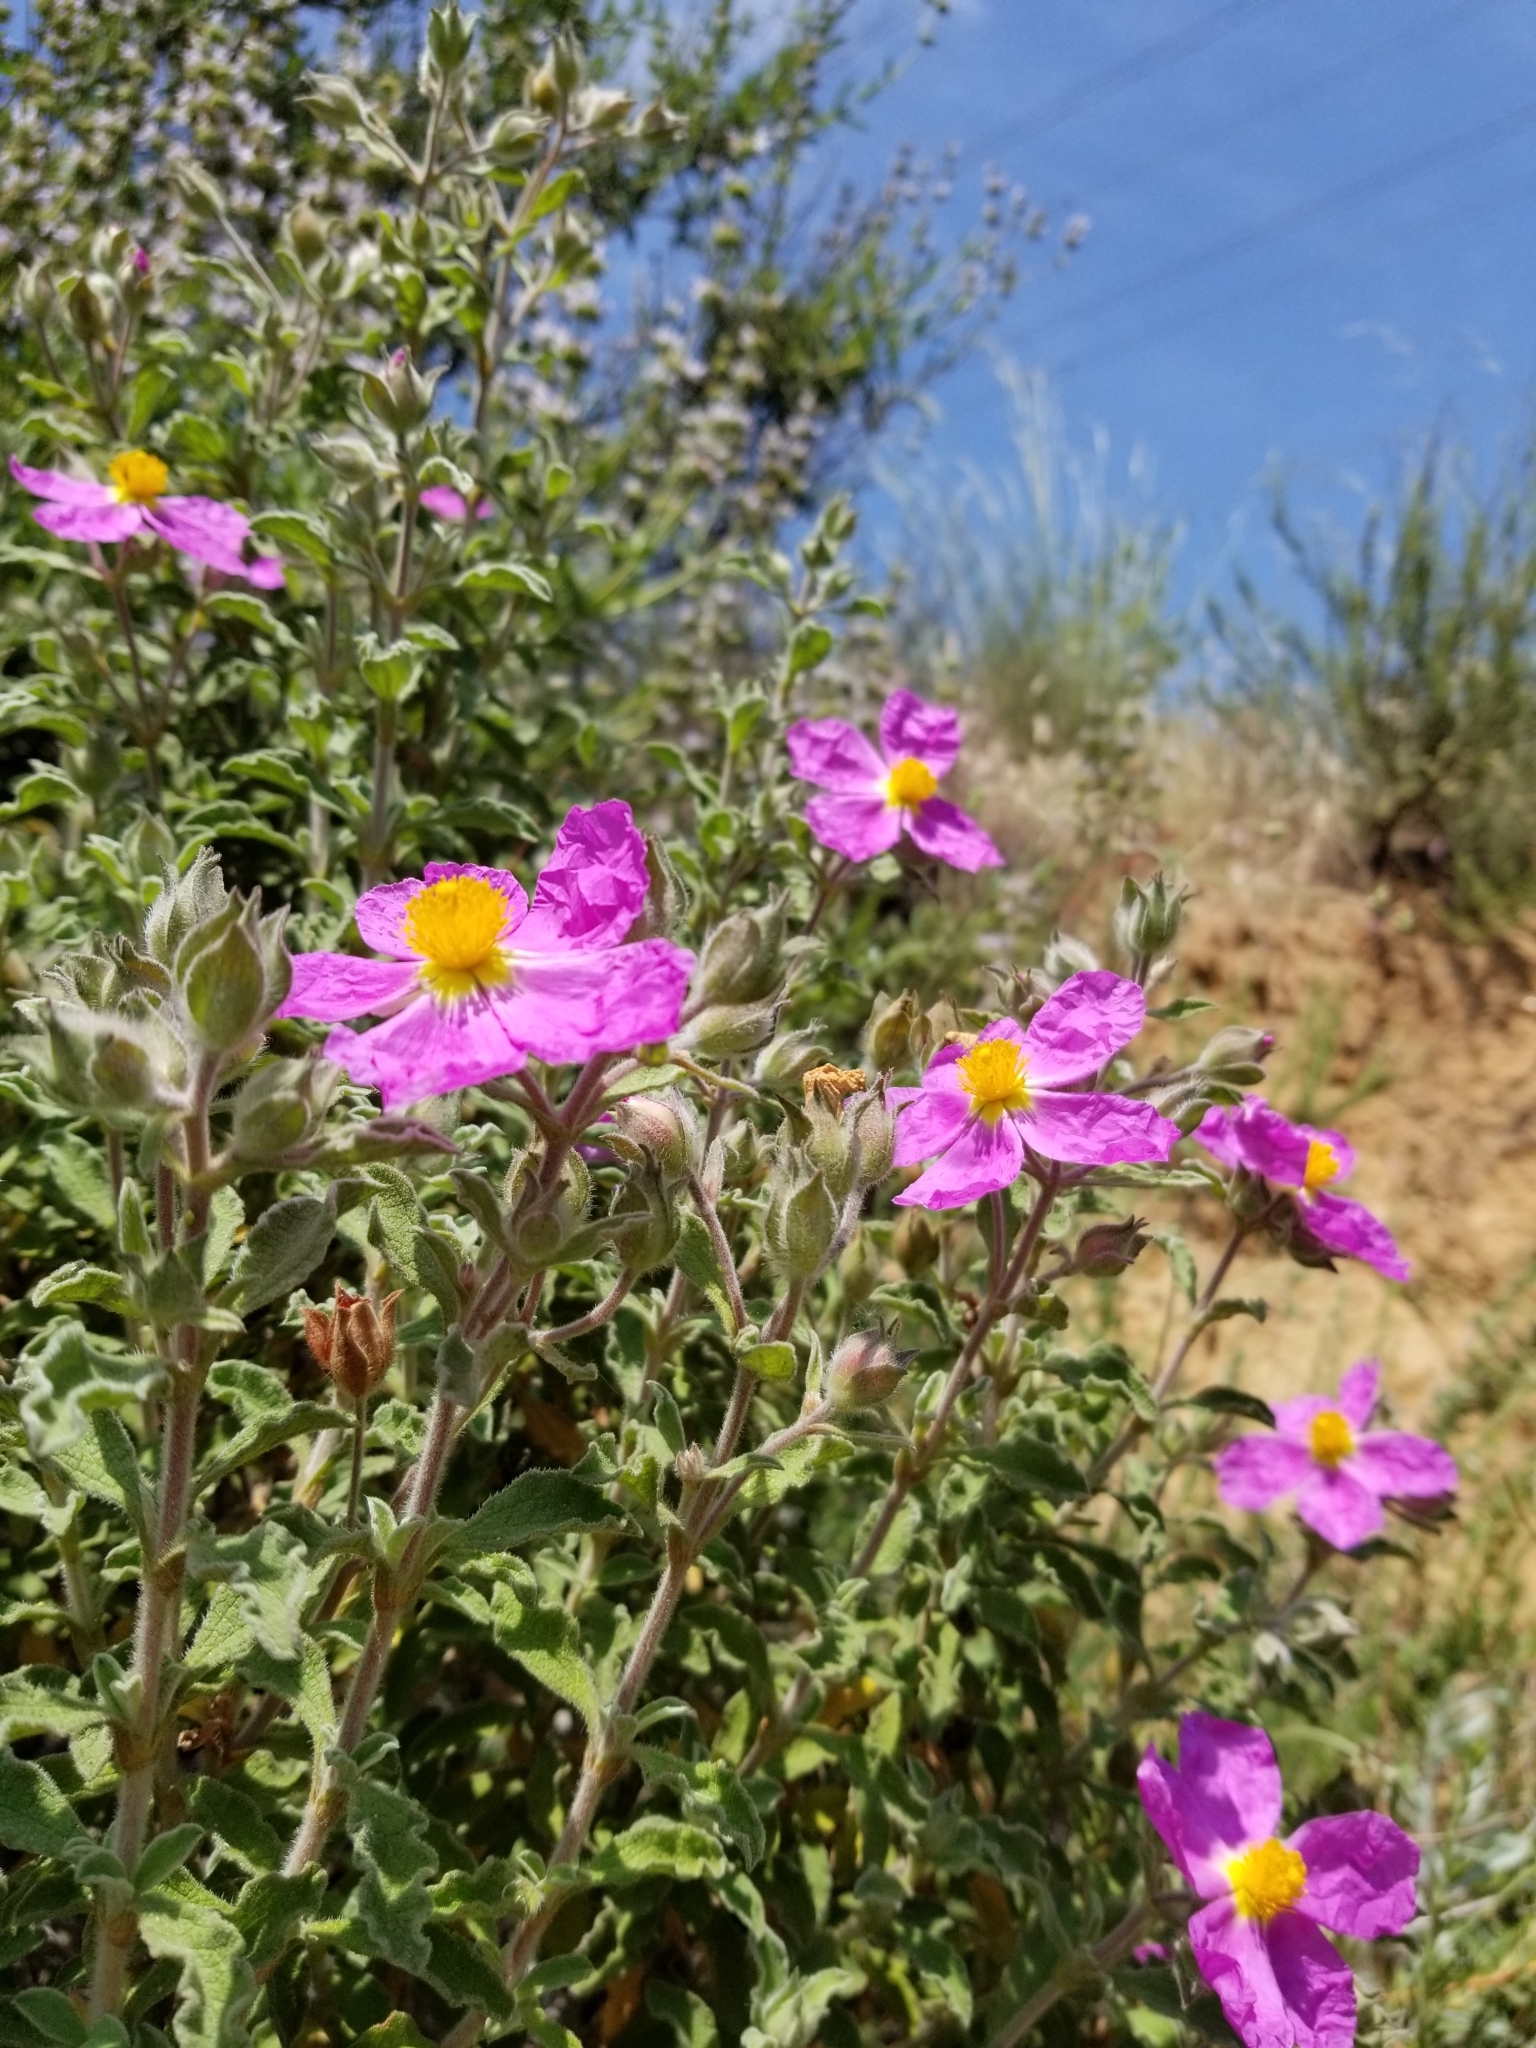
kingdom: Plantae
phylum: Tracheophyta
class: Magnoliopsida
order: Malvales
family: Cistaceae
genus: Cistus
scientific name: Cistus creticus
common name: Cretan rockrose
